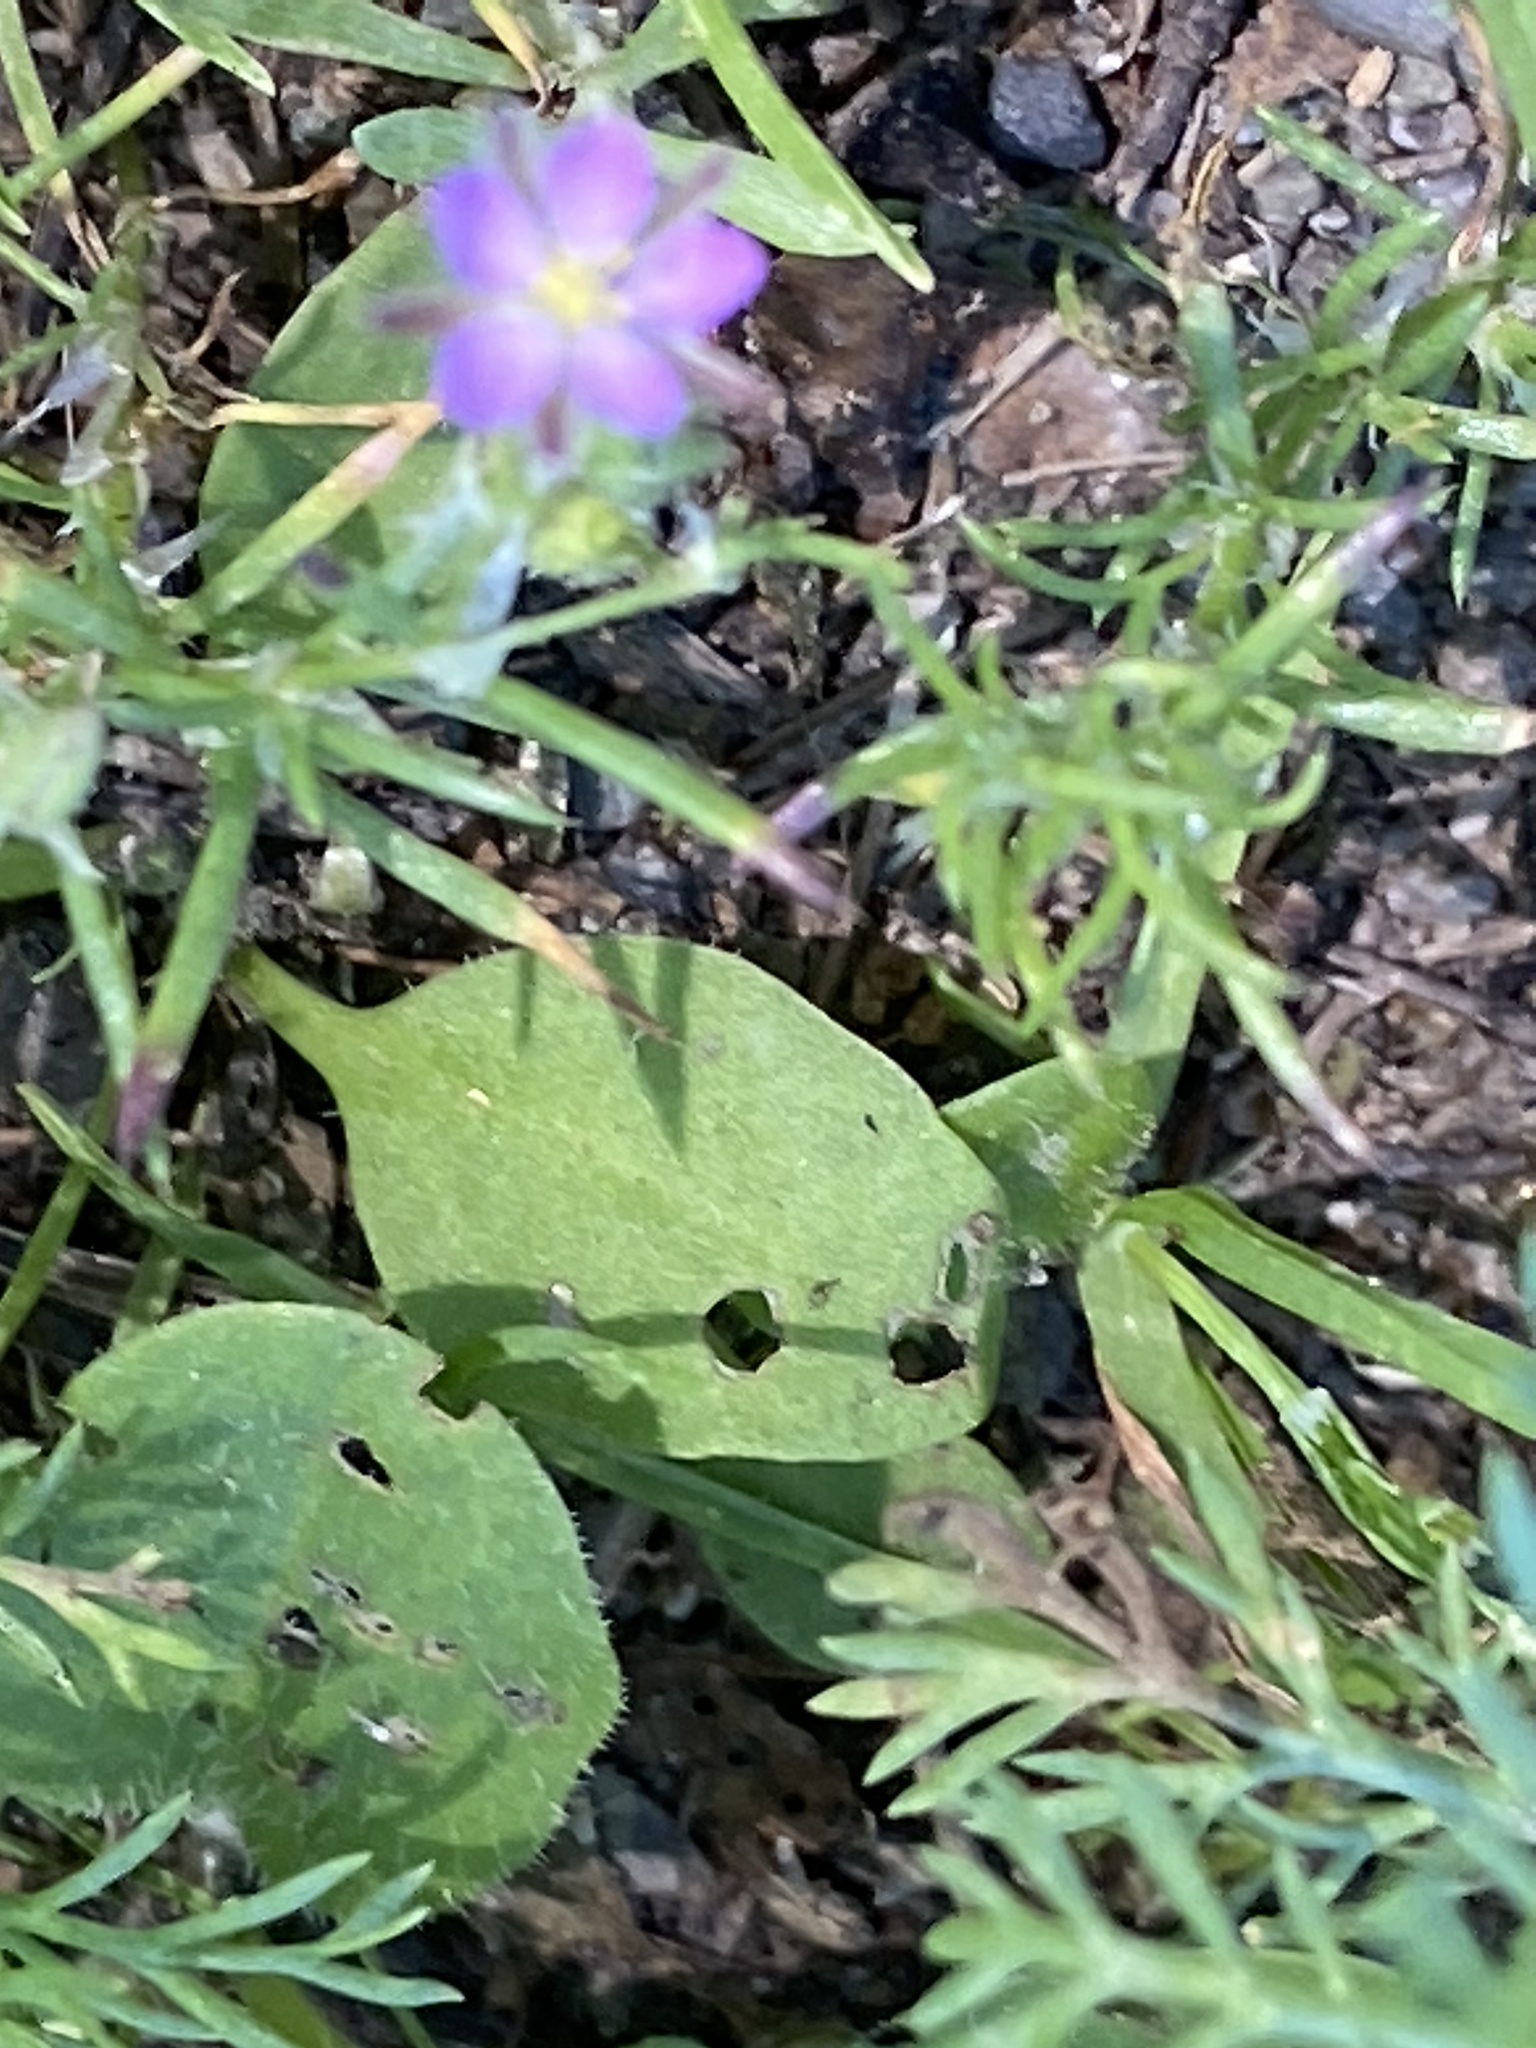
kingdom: Plantae
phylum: Tracheophyta
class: Magnoliopsida
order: Caryophyllales
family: Caryophyllaceae
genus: Spergularia
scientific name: Spergularia rubra
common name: Red sand-spurrey
